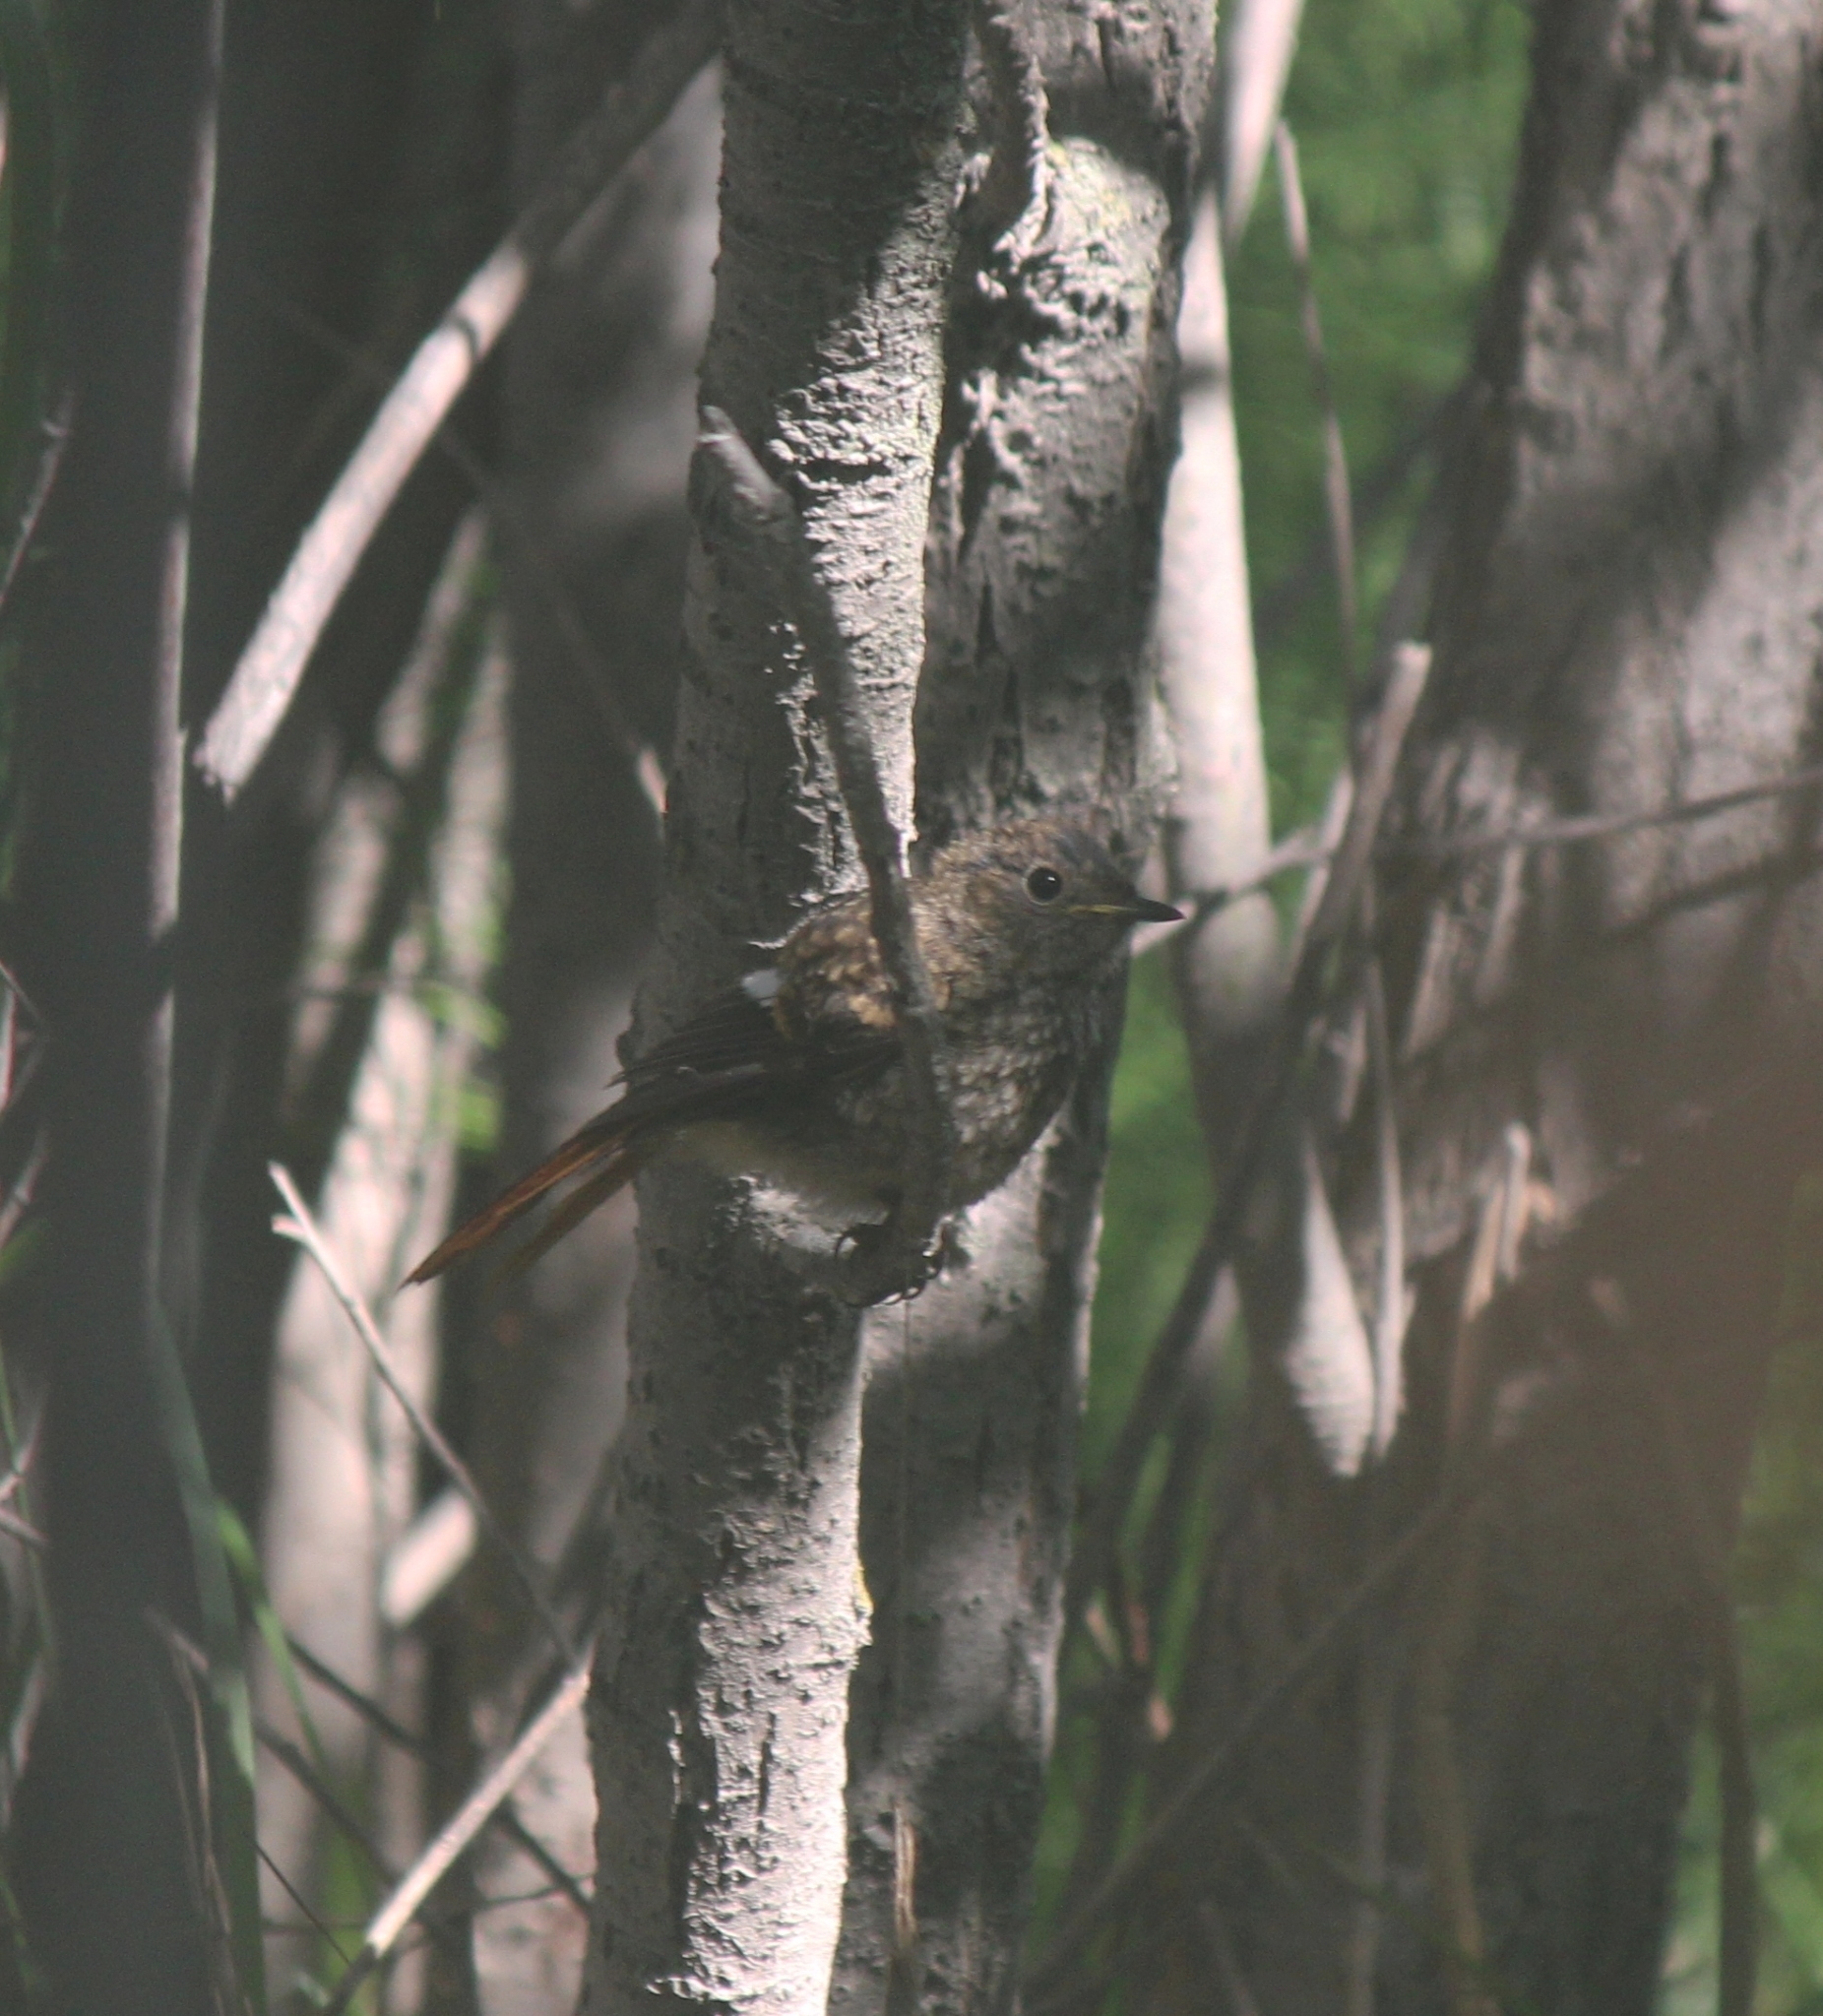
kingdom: Animalia
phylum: Chordata
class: Aves
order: Passeriformes
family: Muscicapidae
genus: Phoenicurus
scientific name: Phoenicurus auroreus
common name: Daurian redstart
